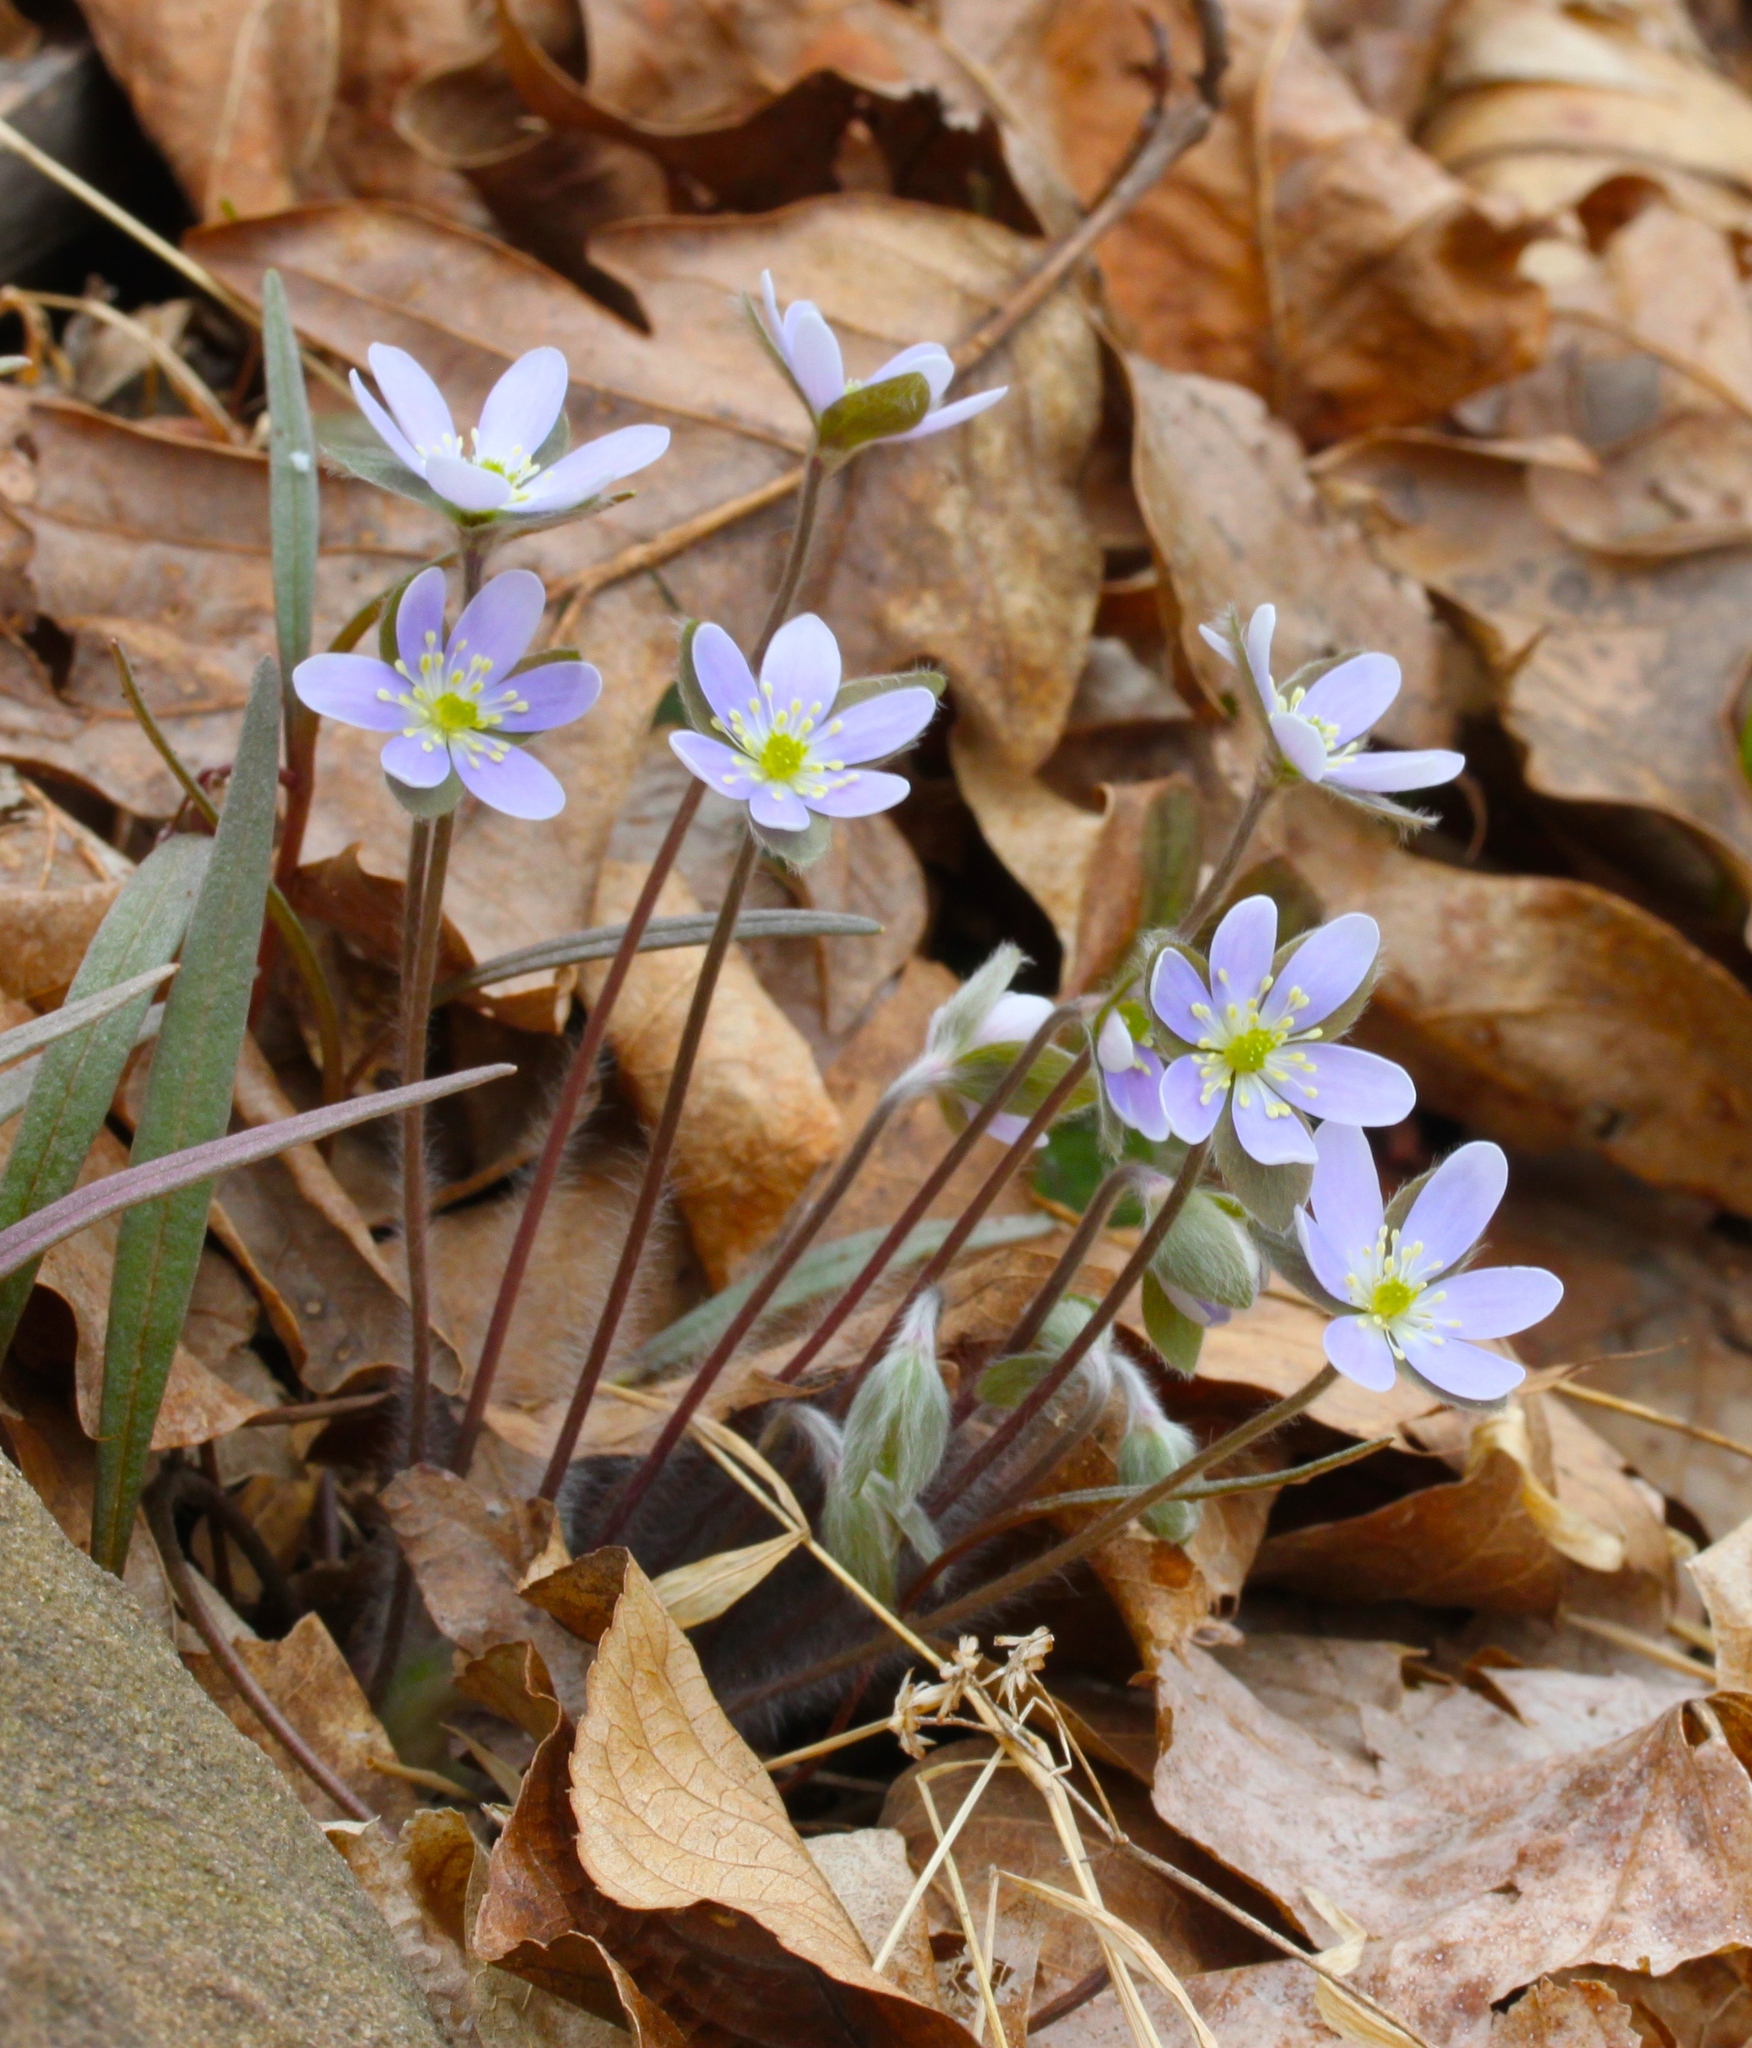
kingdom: Plantae
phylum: Tracheophyta
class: Magnoliopsida
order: Ranunculales
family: Ranunculaceae
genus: Hepatica
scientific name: Hepatica americana
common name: American hepatica
